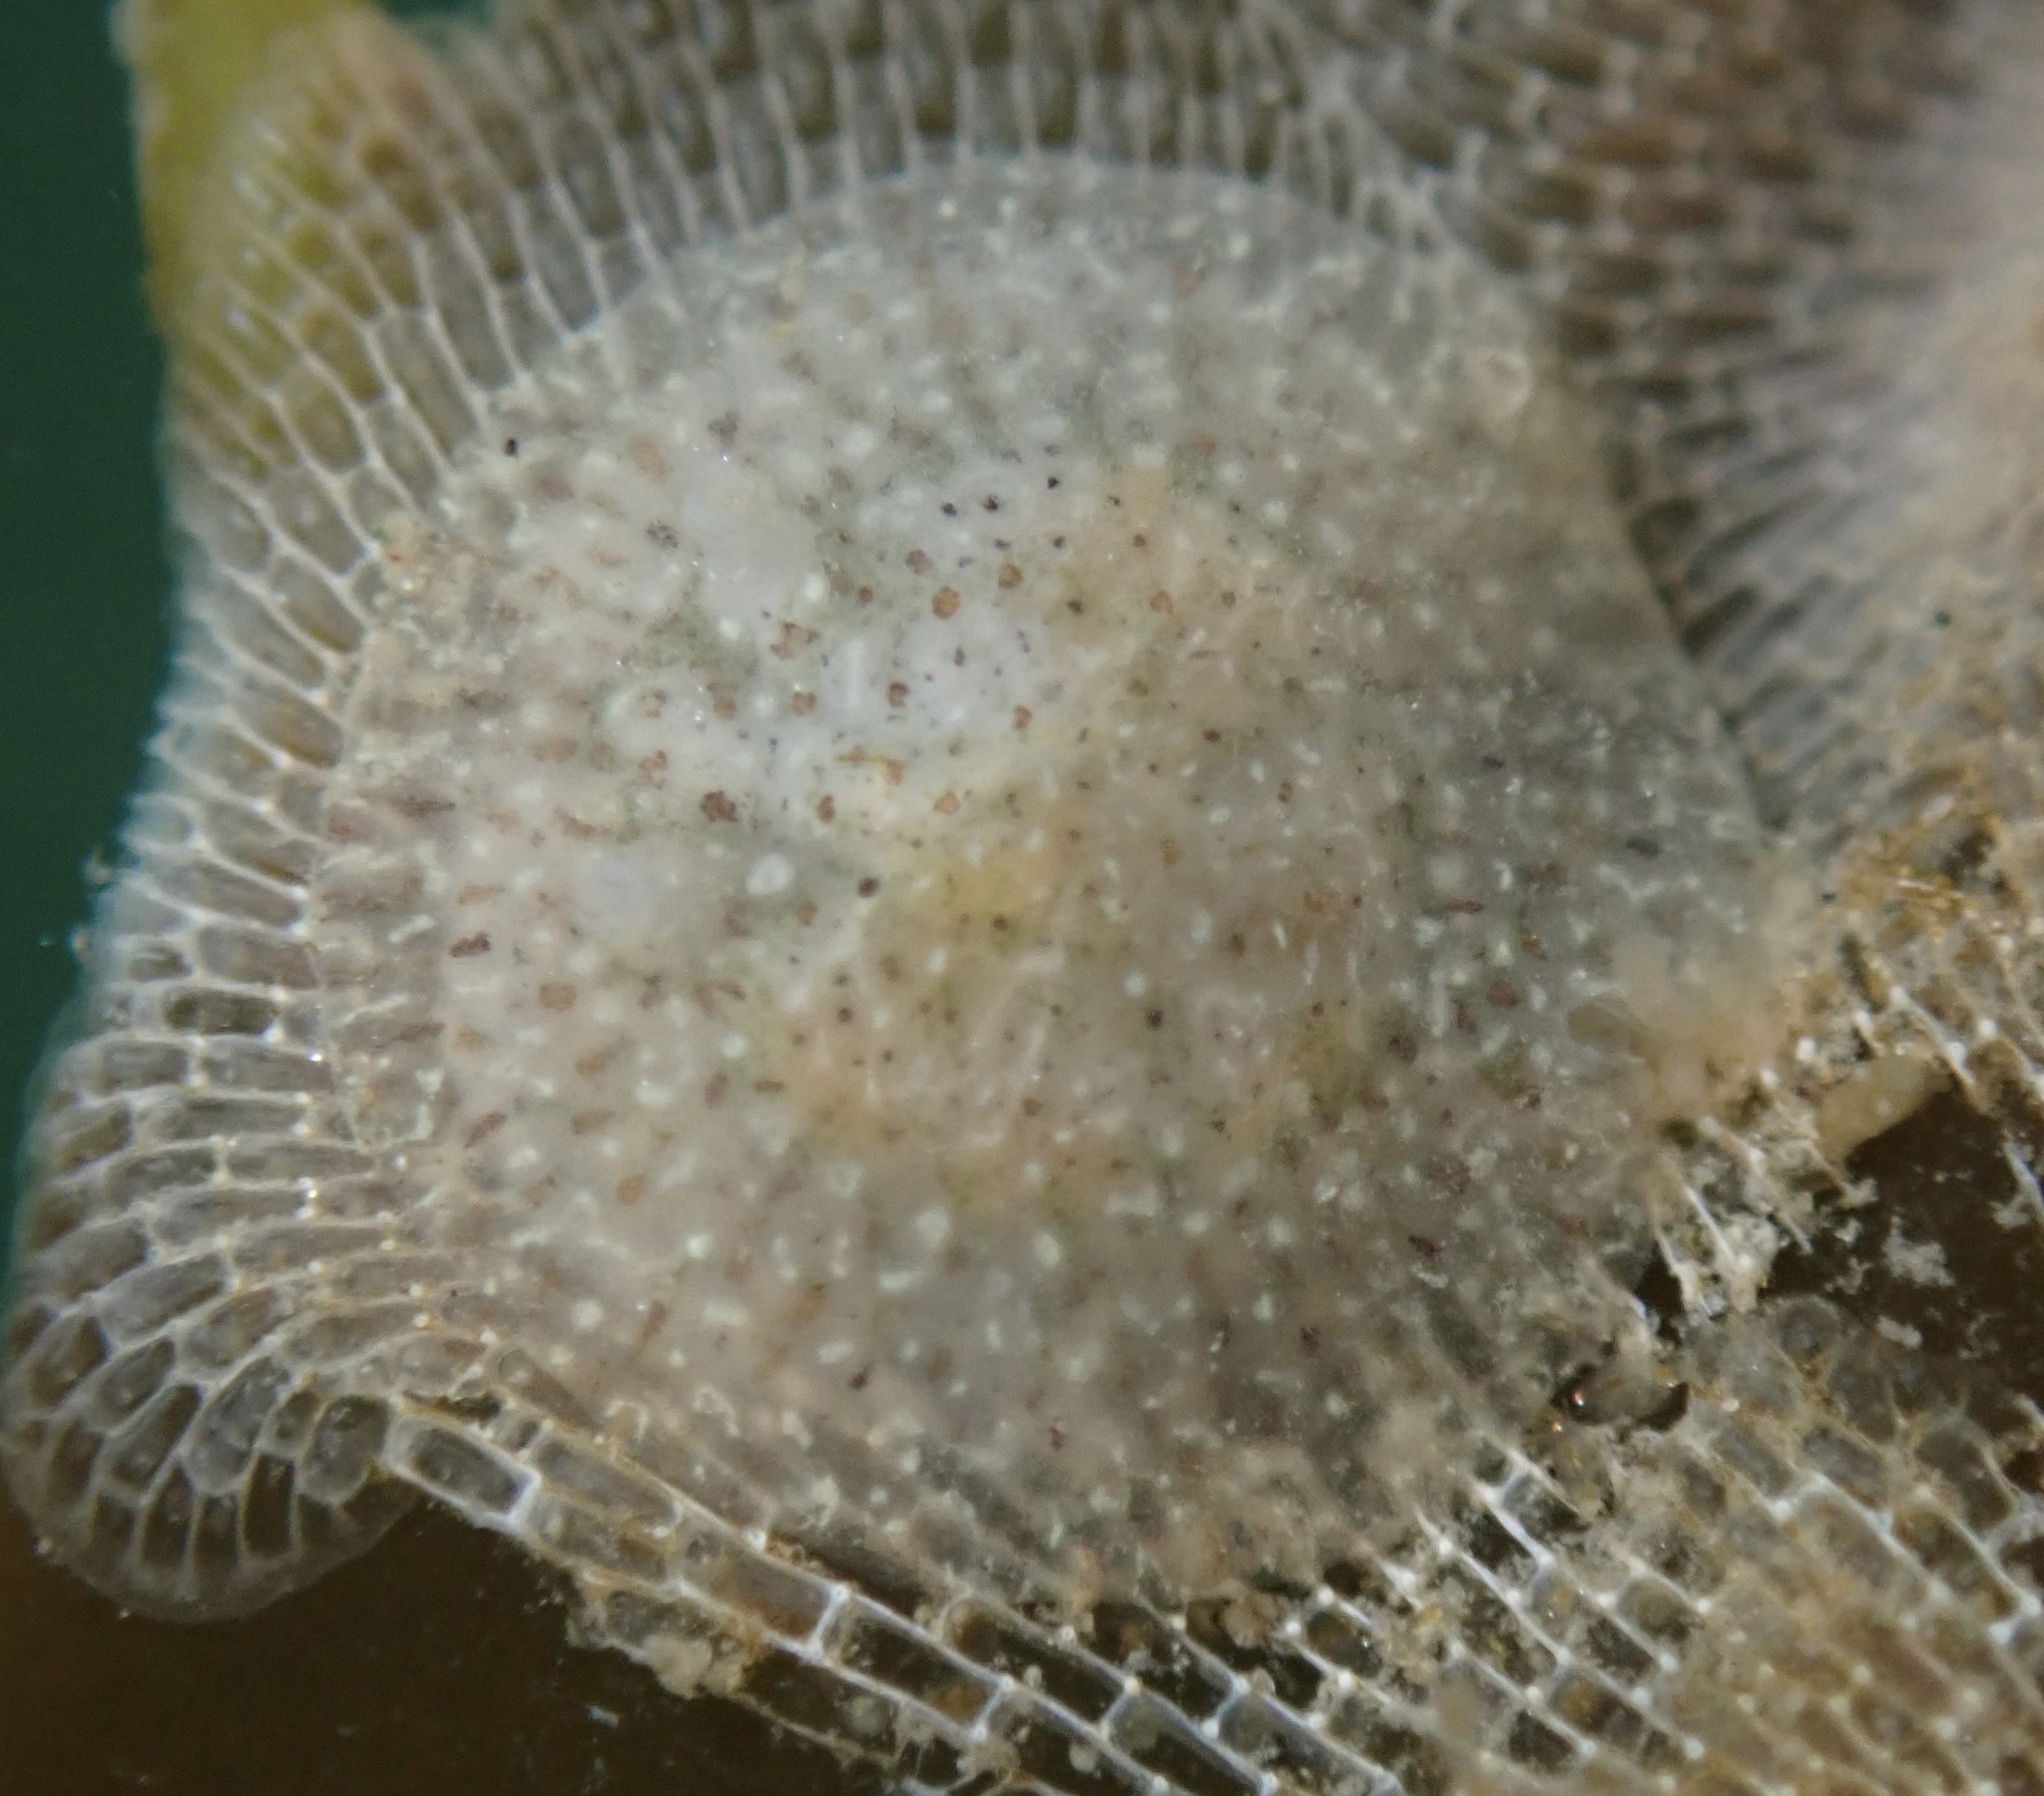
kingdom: Animalia
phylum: Mollusca
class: Gastropoda
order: Nudibranchia
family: Corambidae
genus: Corambe
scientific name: Corambe pacifica
